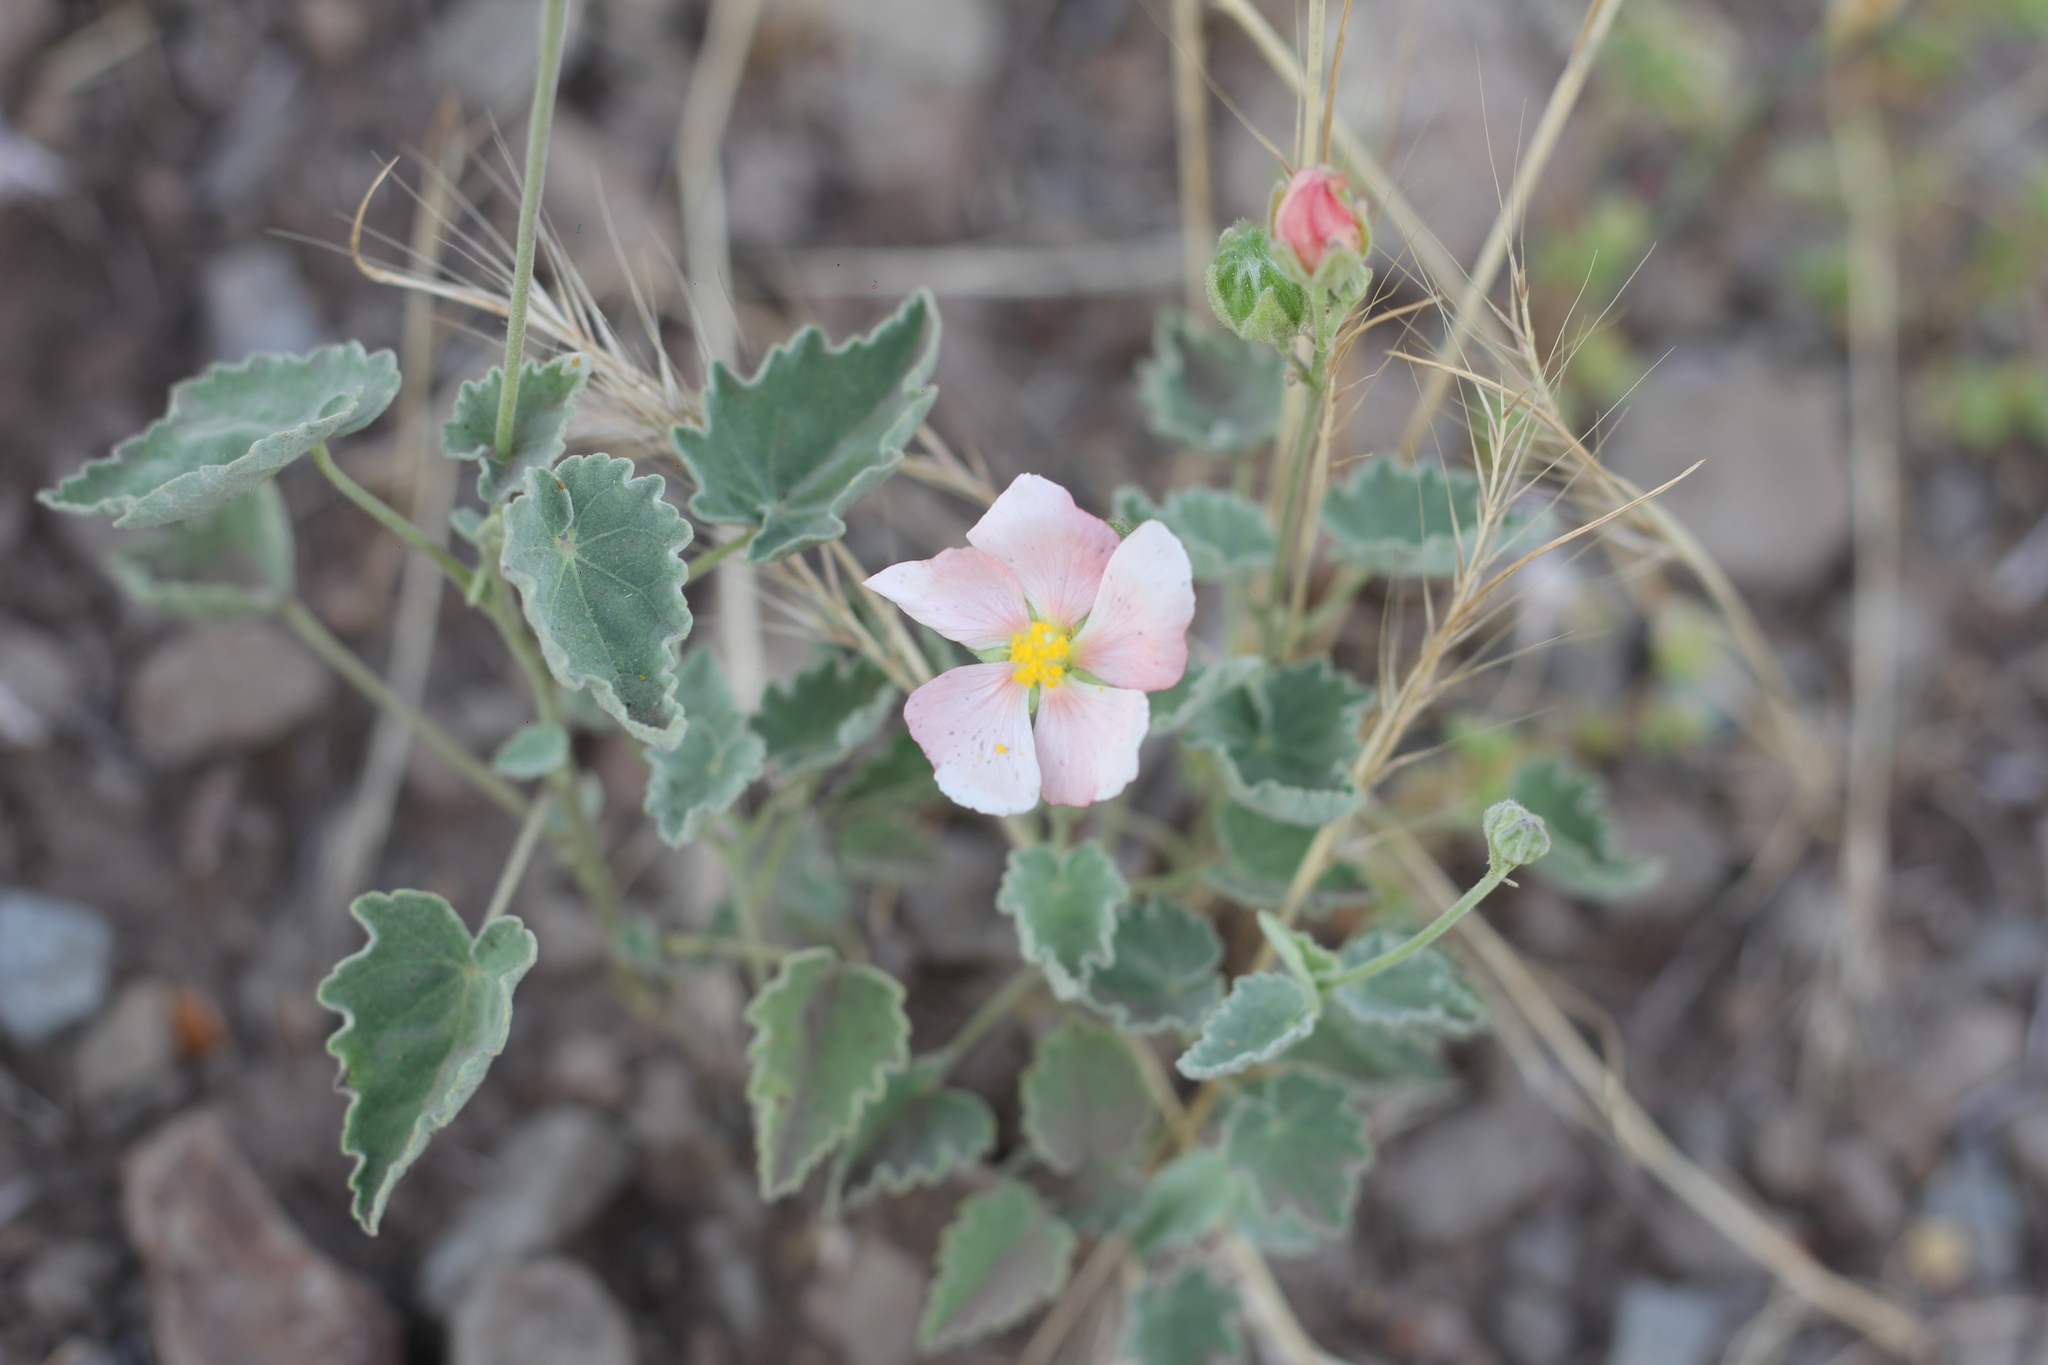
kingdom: Plantae
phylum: Tracheophyta
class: Magnoliopsida
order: Malvales
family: Malvaceae
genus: Abutilon
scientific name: Abutilon terminale
